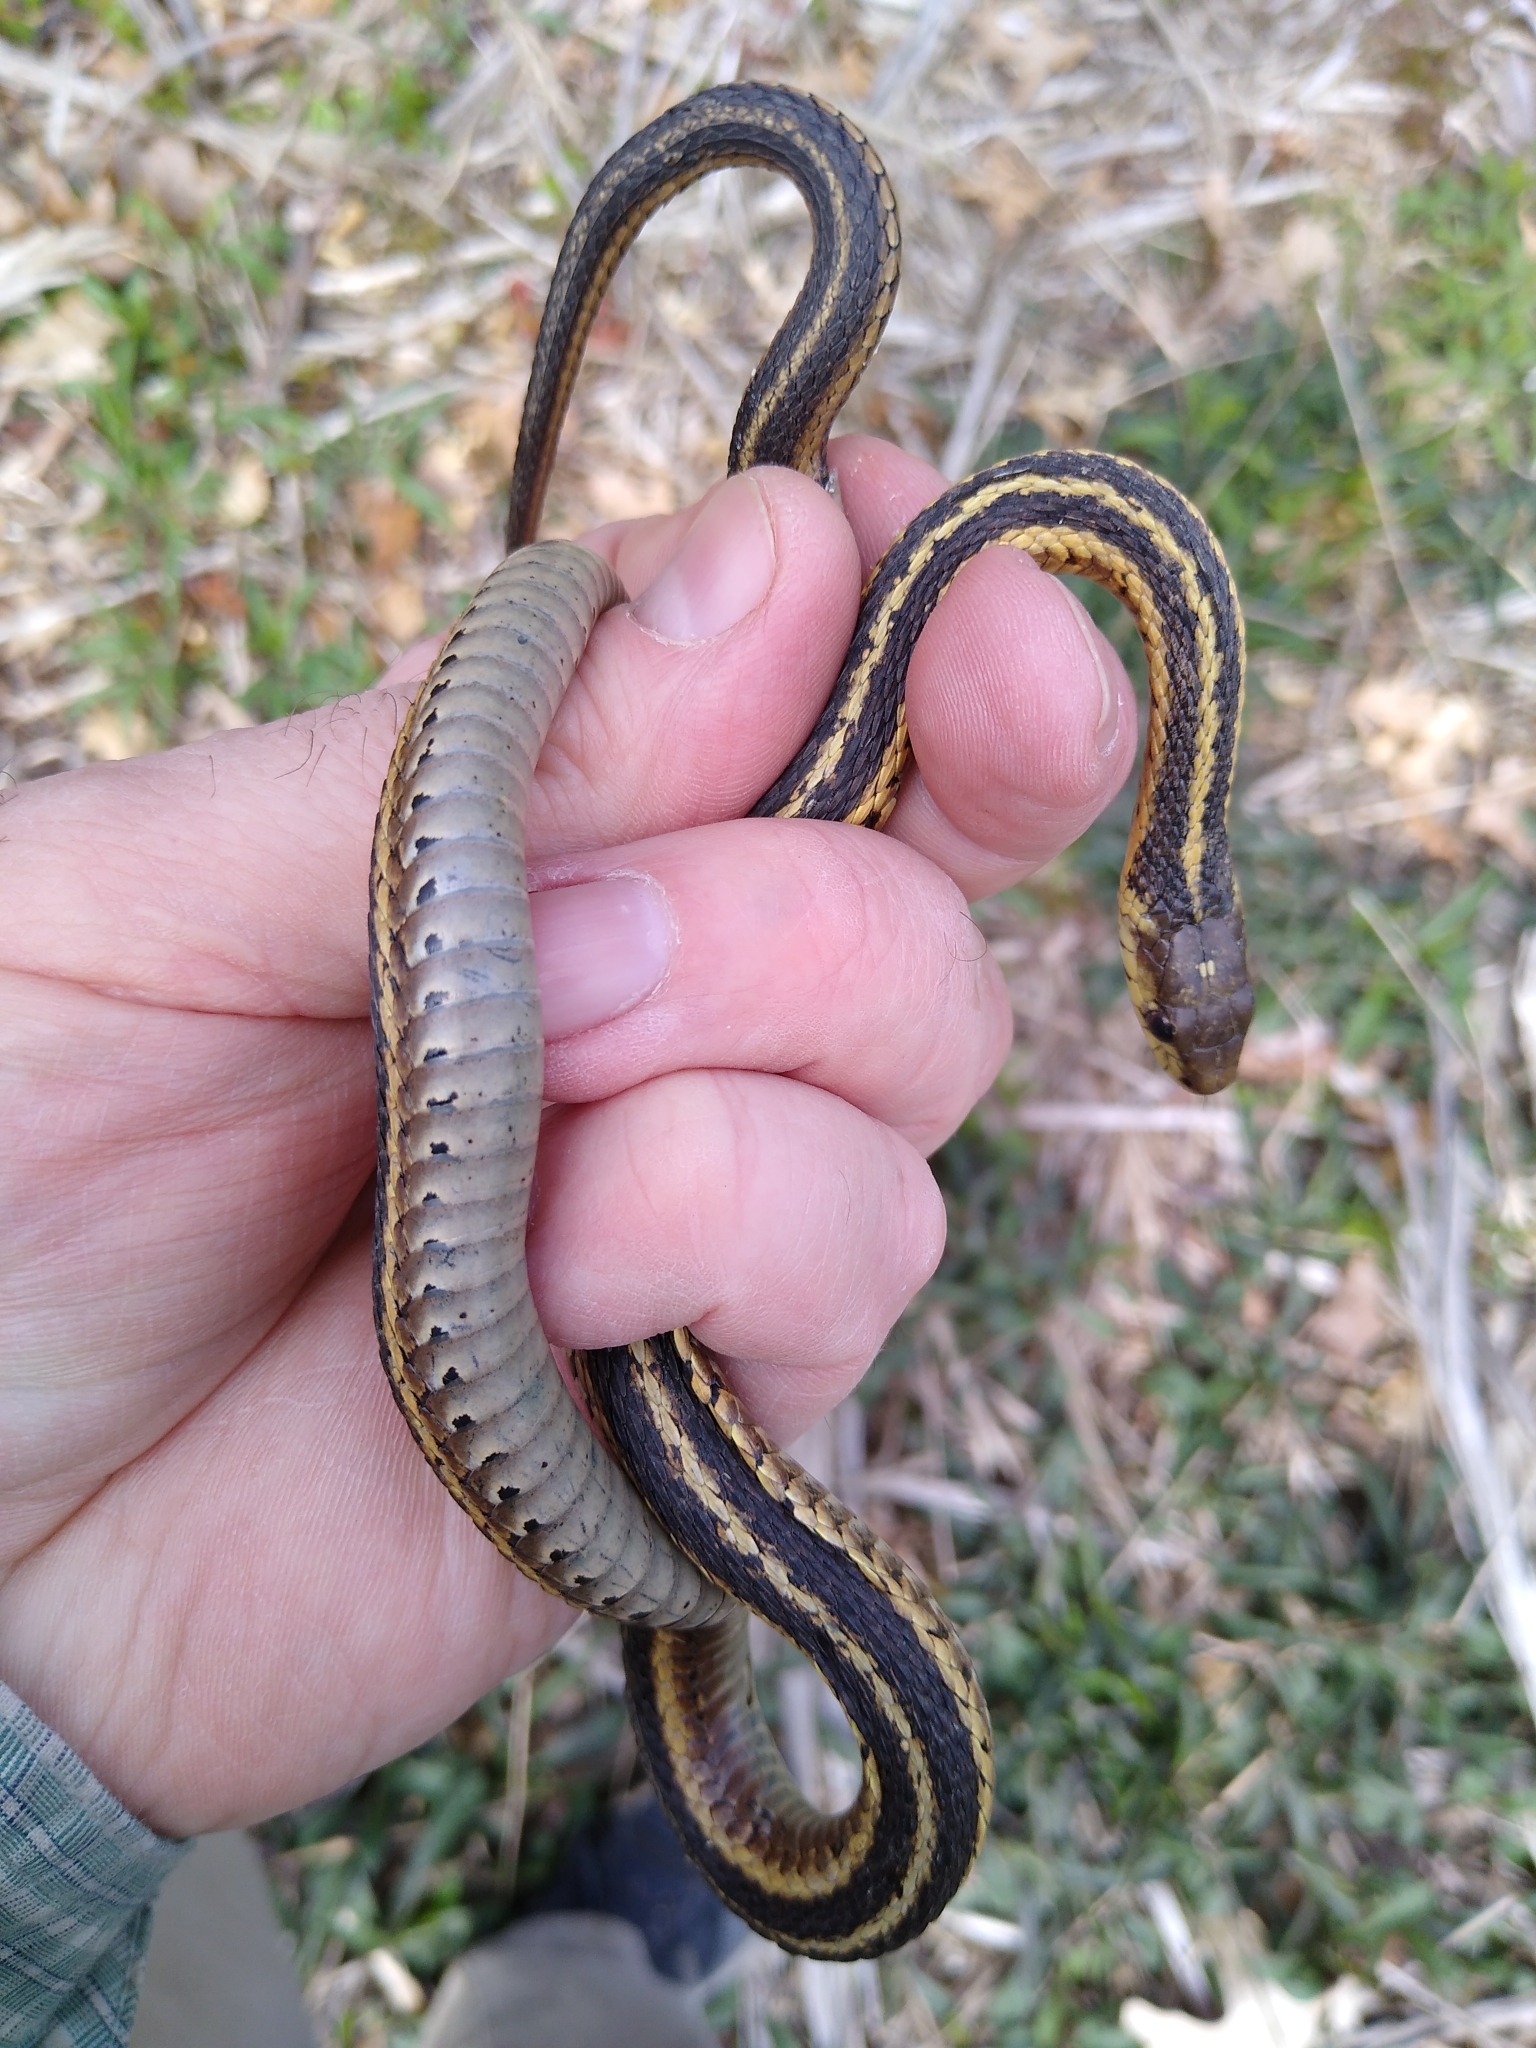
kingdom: Animalia
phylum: Chordata
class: Squamata
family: Colubridae
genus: Thamnophis
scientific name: Thamnophis sirtalis
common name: Common garter snake
